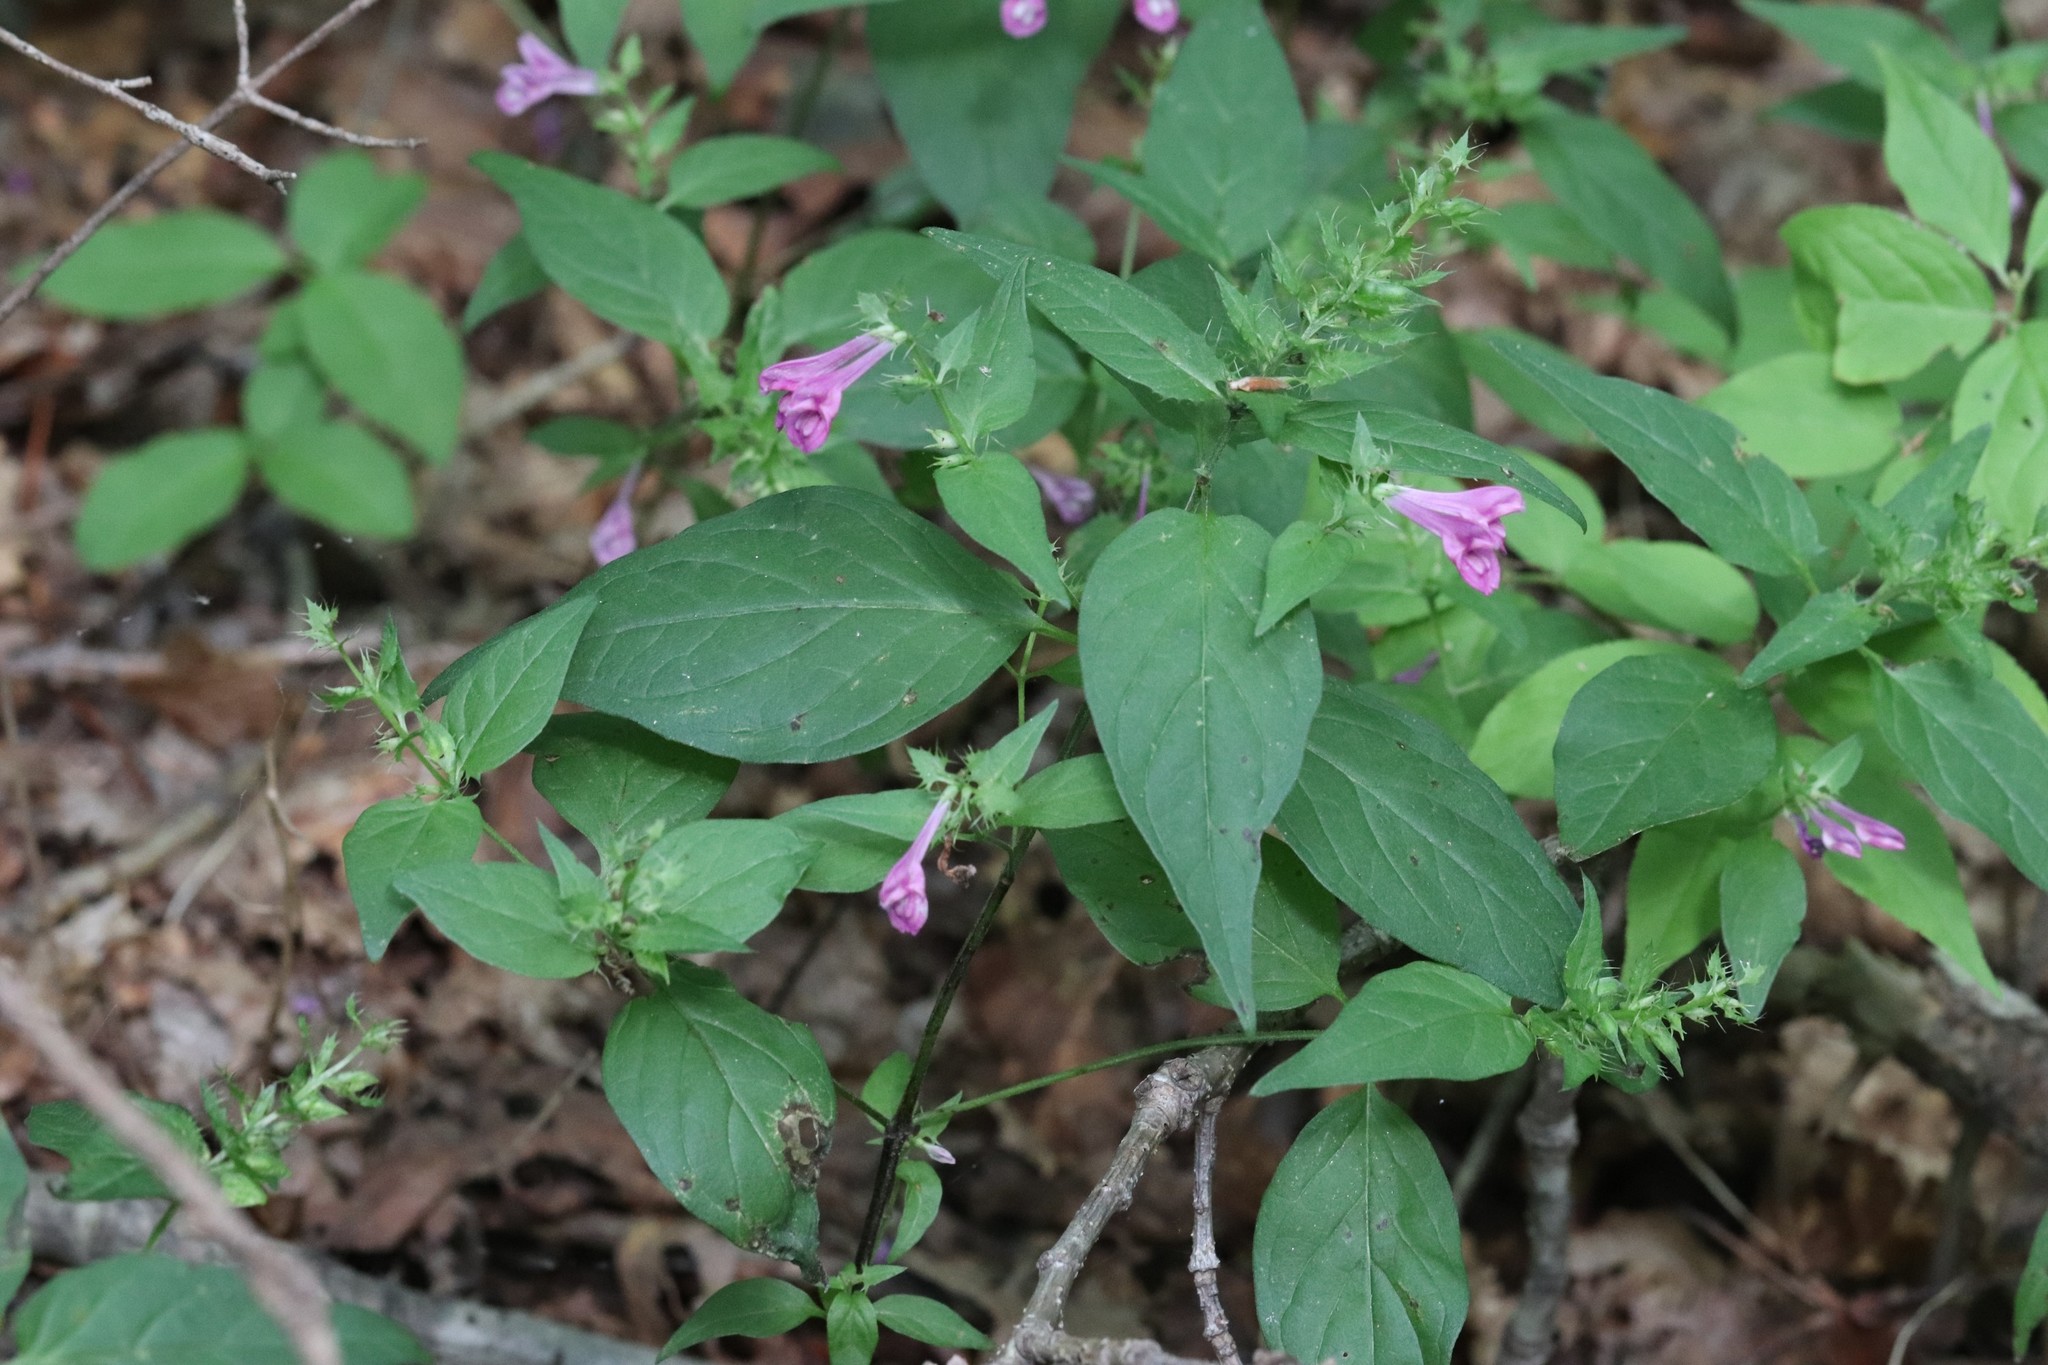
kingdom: Plantae
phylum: Tracheophyta
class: Magnoliopsida
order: Lamiales
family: Orobanchaceae
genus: Melampyrum
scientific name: Melampyrum roseum
